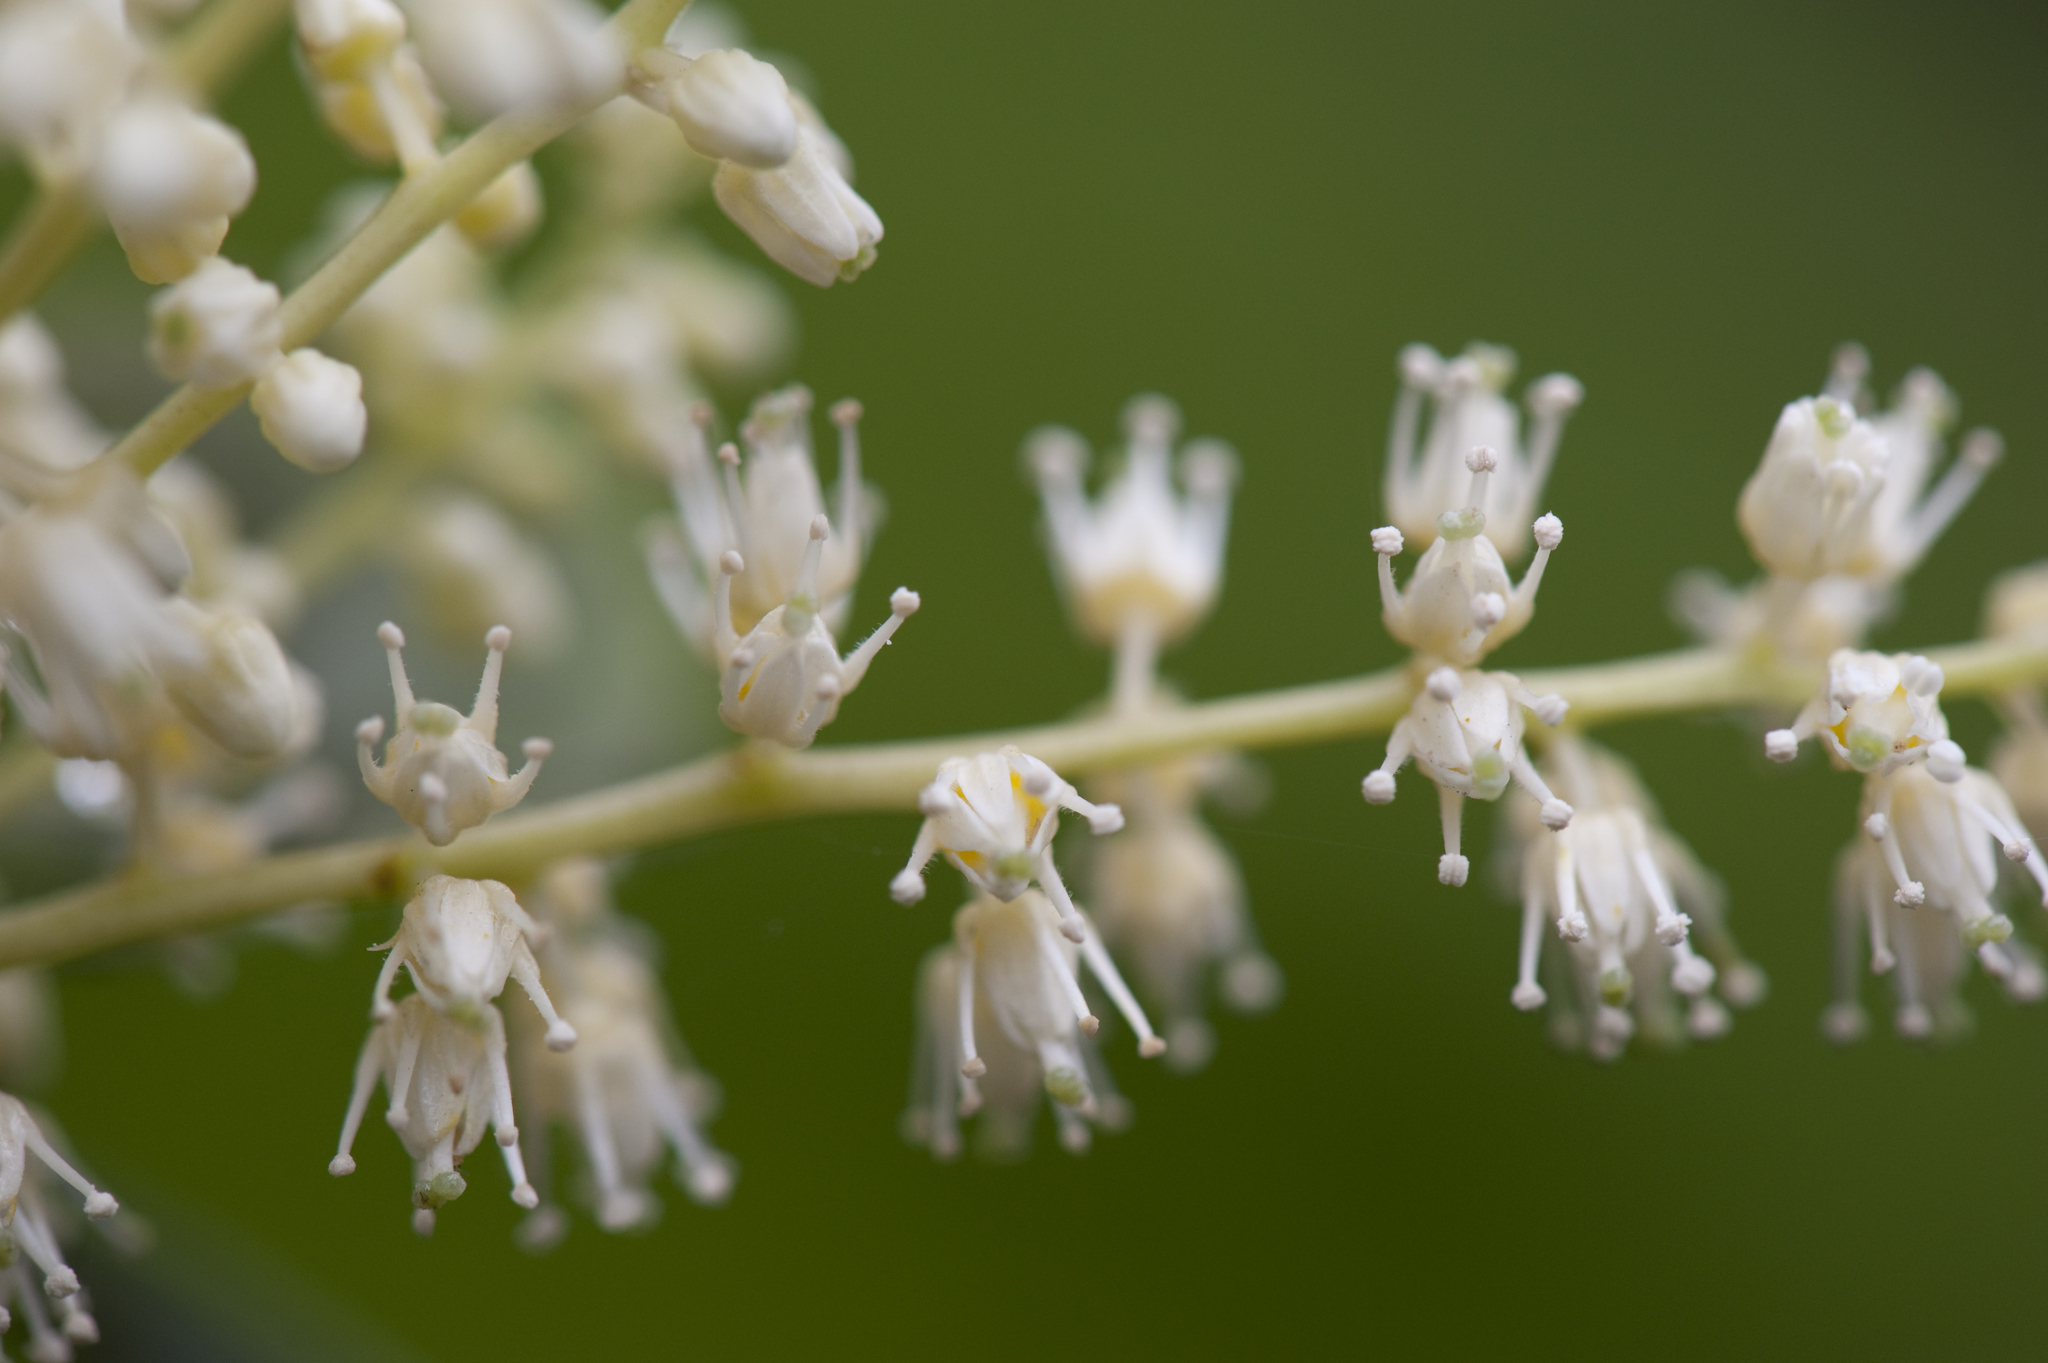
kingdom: Plantae
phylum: Tracheophyta
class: Magnoliopsida
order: Saxifragales
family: Iteaceae
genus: Itea
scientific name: Itea oldhamii
